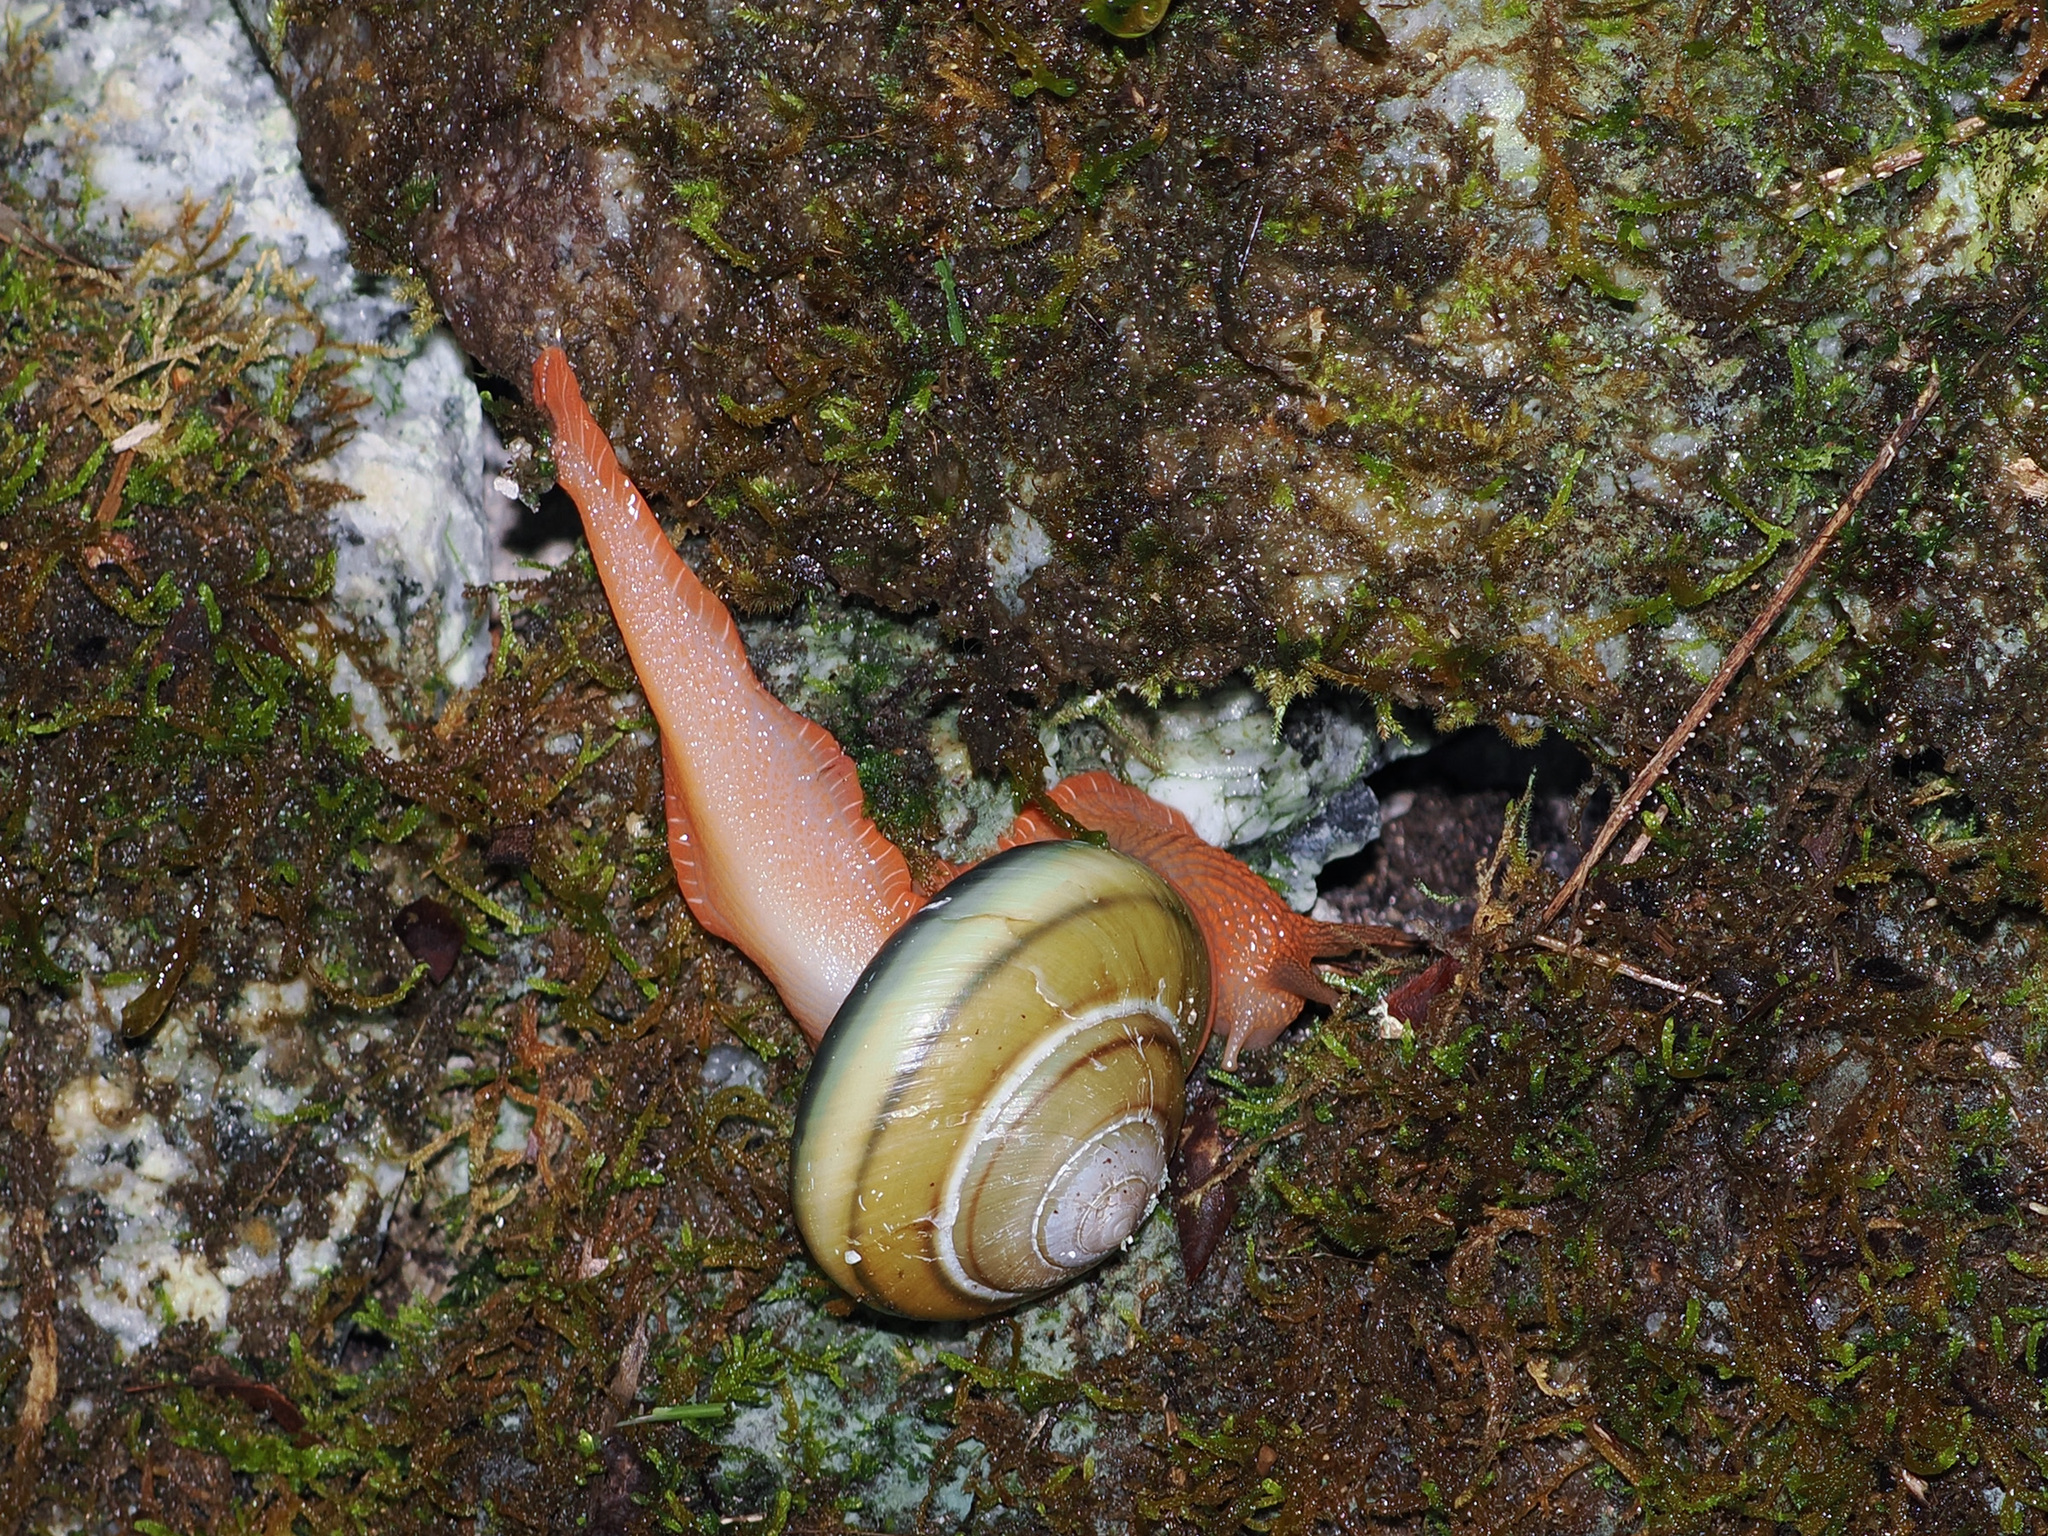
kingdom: Animalia
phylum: Mollusca
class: Gastropoda
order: Stylommatophora
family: Ariophantidae
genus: Hemiplecta
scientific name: Hemiplecta malaouyi
